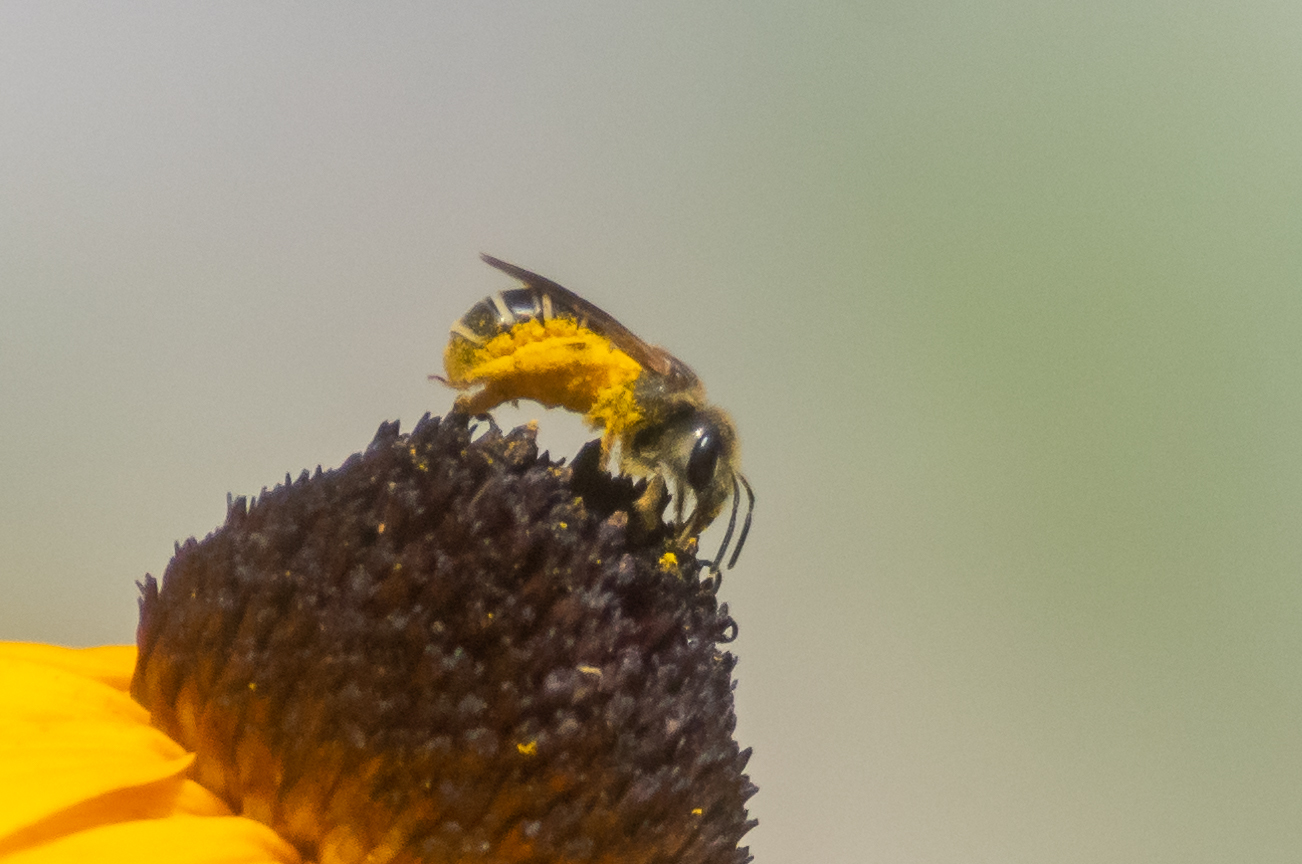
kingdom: Animalia
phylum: Arthropoda
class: Insecta
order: Hymenoptera
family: Halictidae
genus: Halictus
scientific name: Halictus ligatus
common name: Ligated furrow bee
